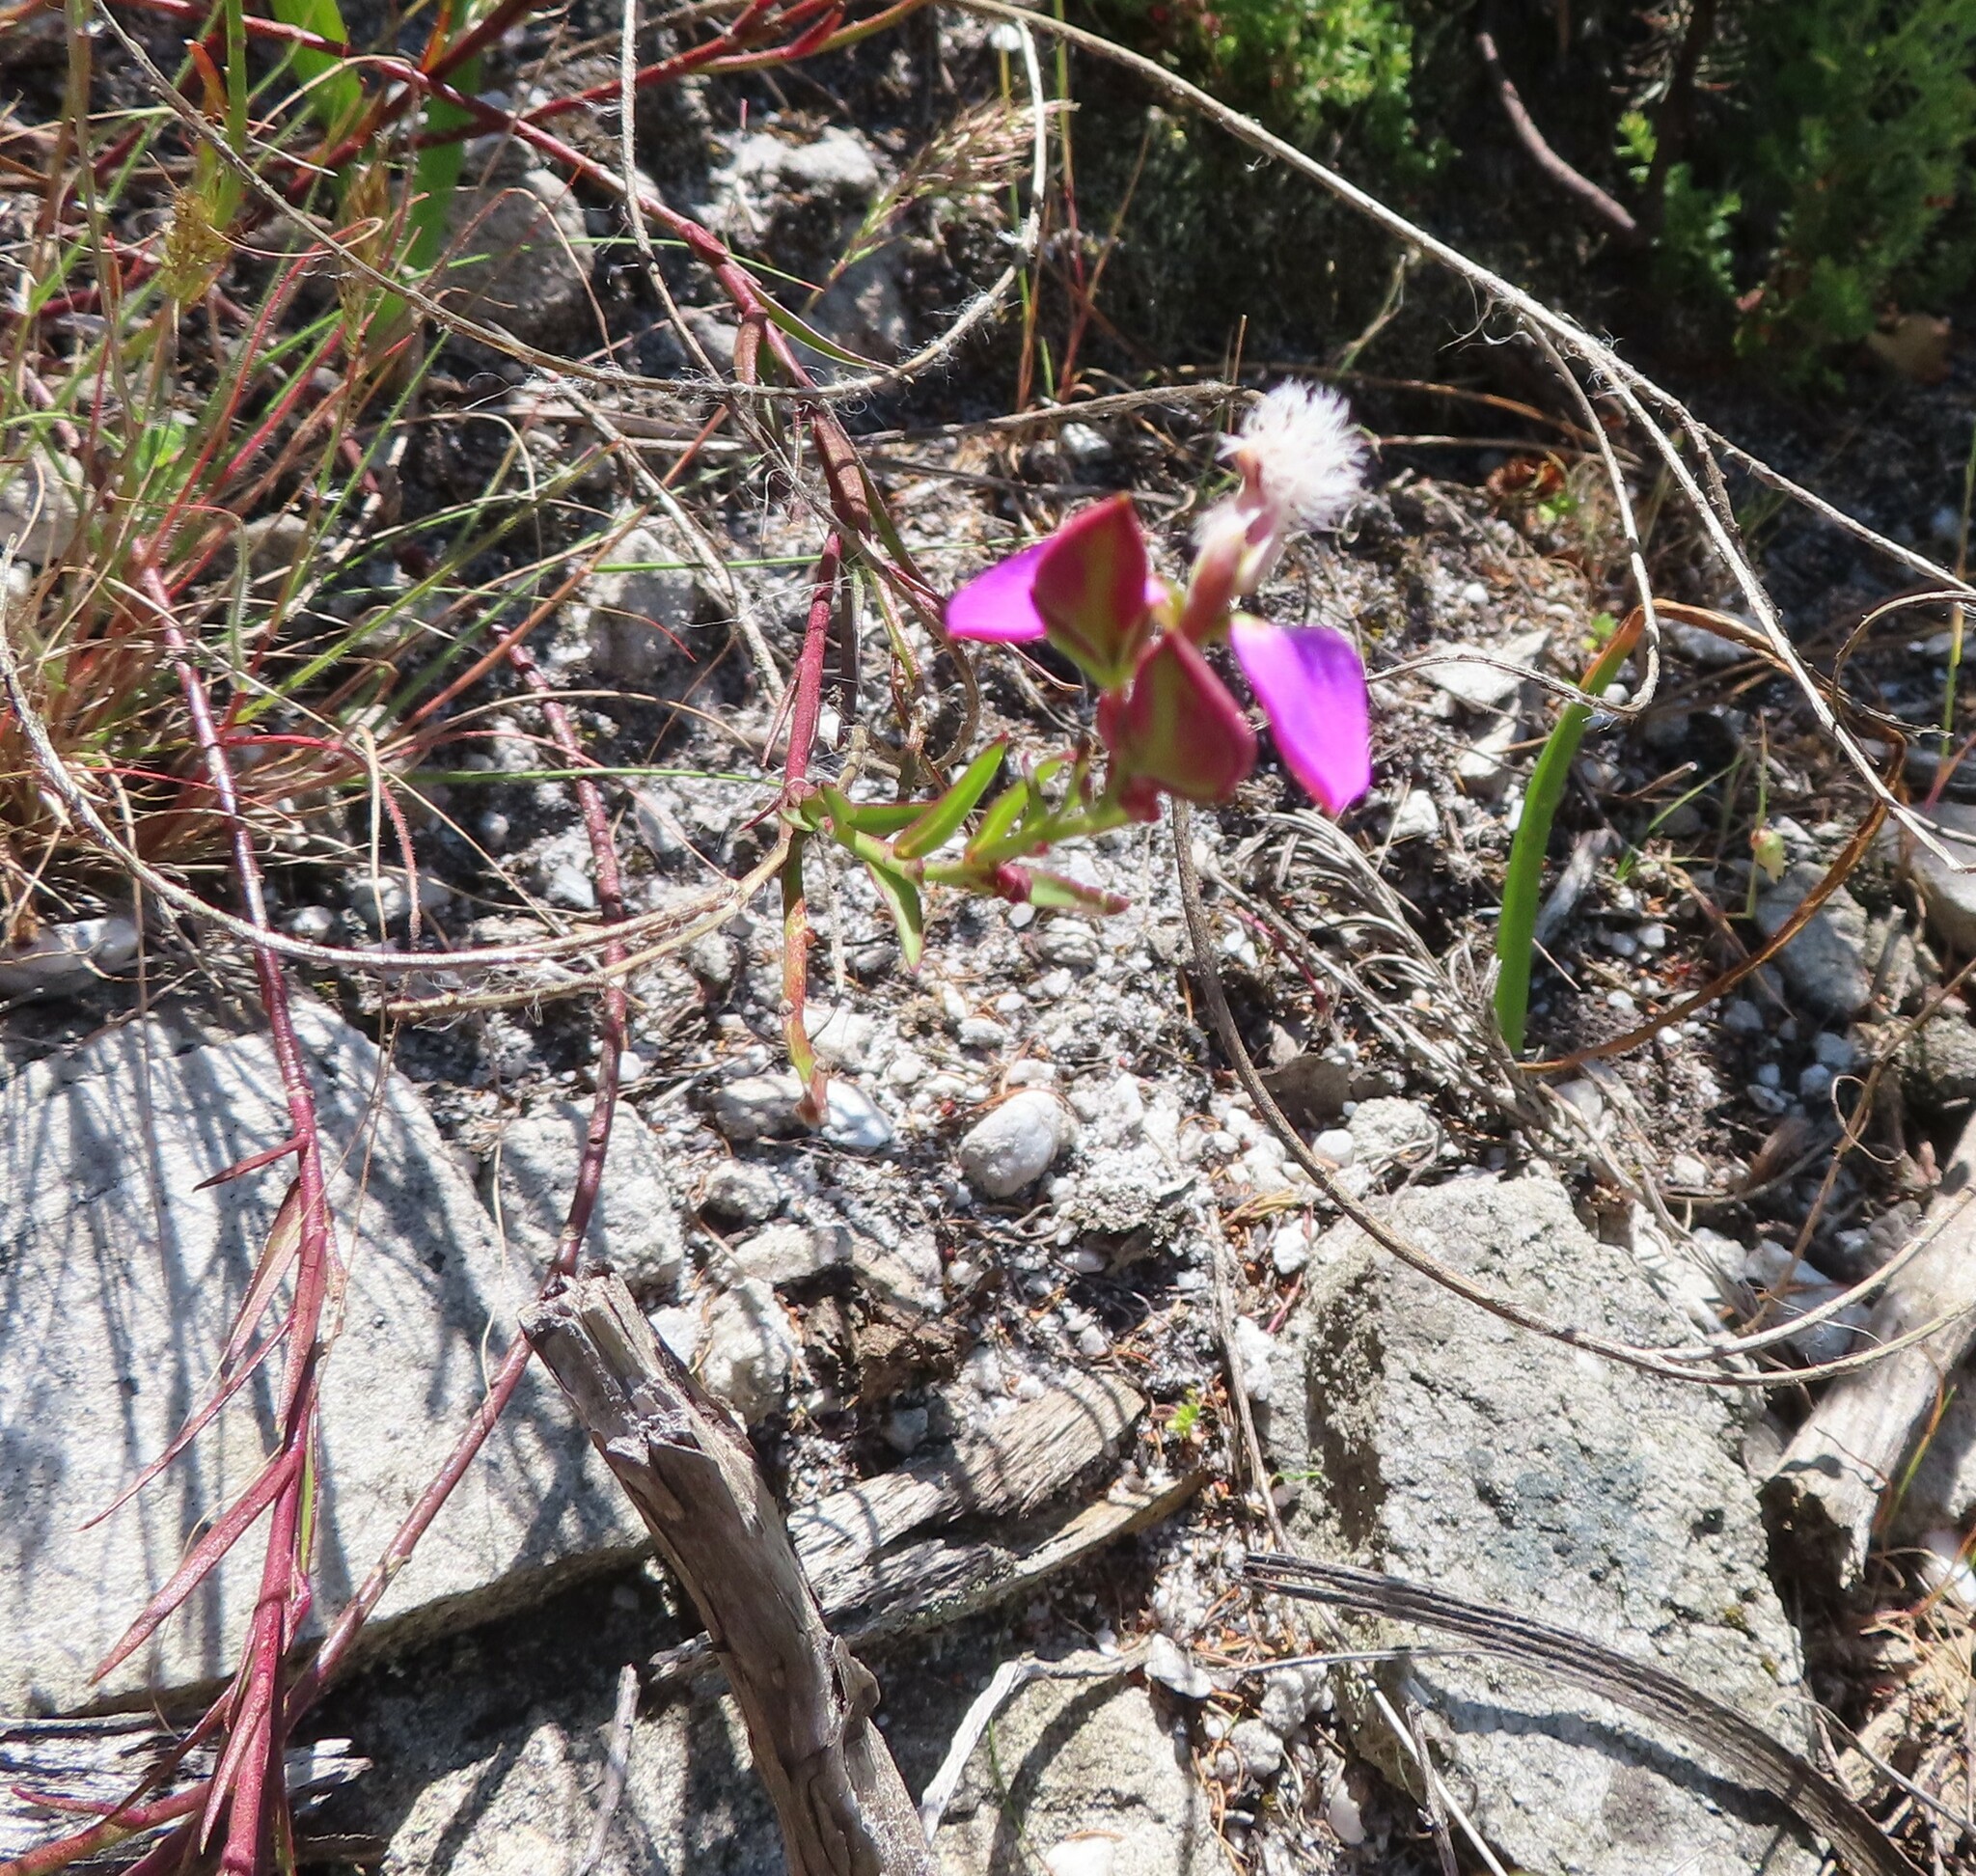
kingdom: Plantae
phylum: Tracheophyta
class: Magnoliopsida
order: Fabales
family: Polygalaceae
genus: Polygala
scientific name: Polygala bracteolata
